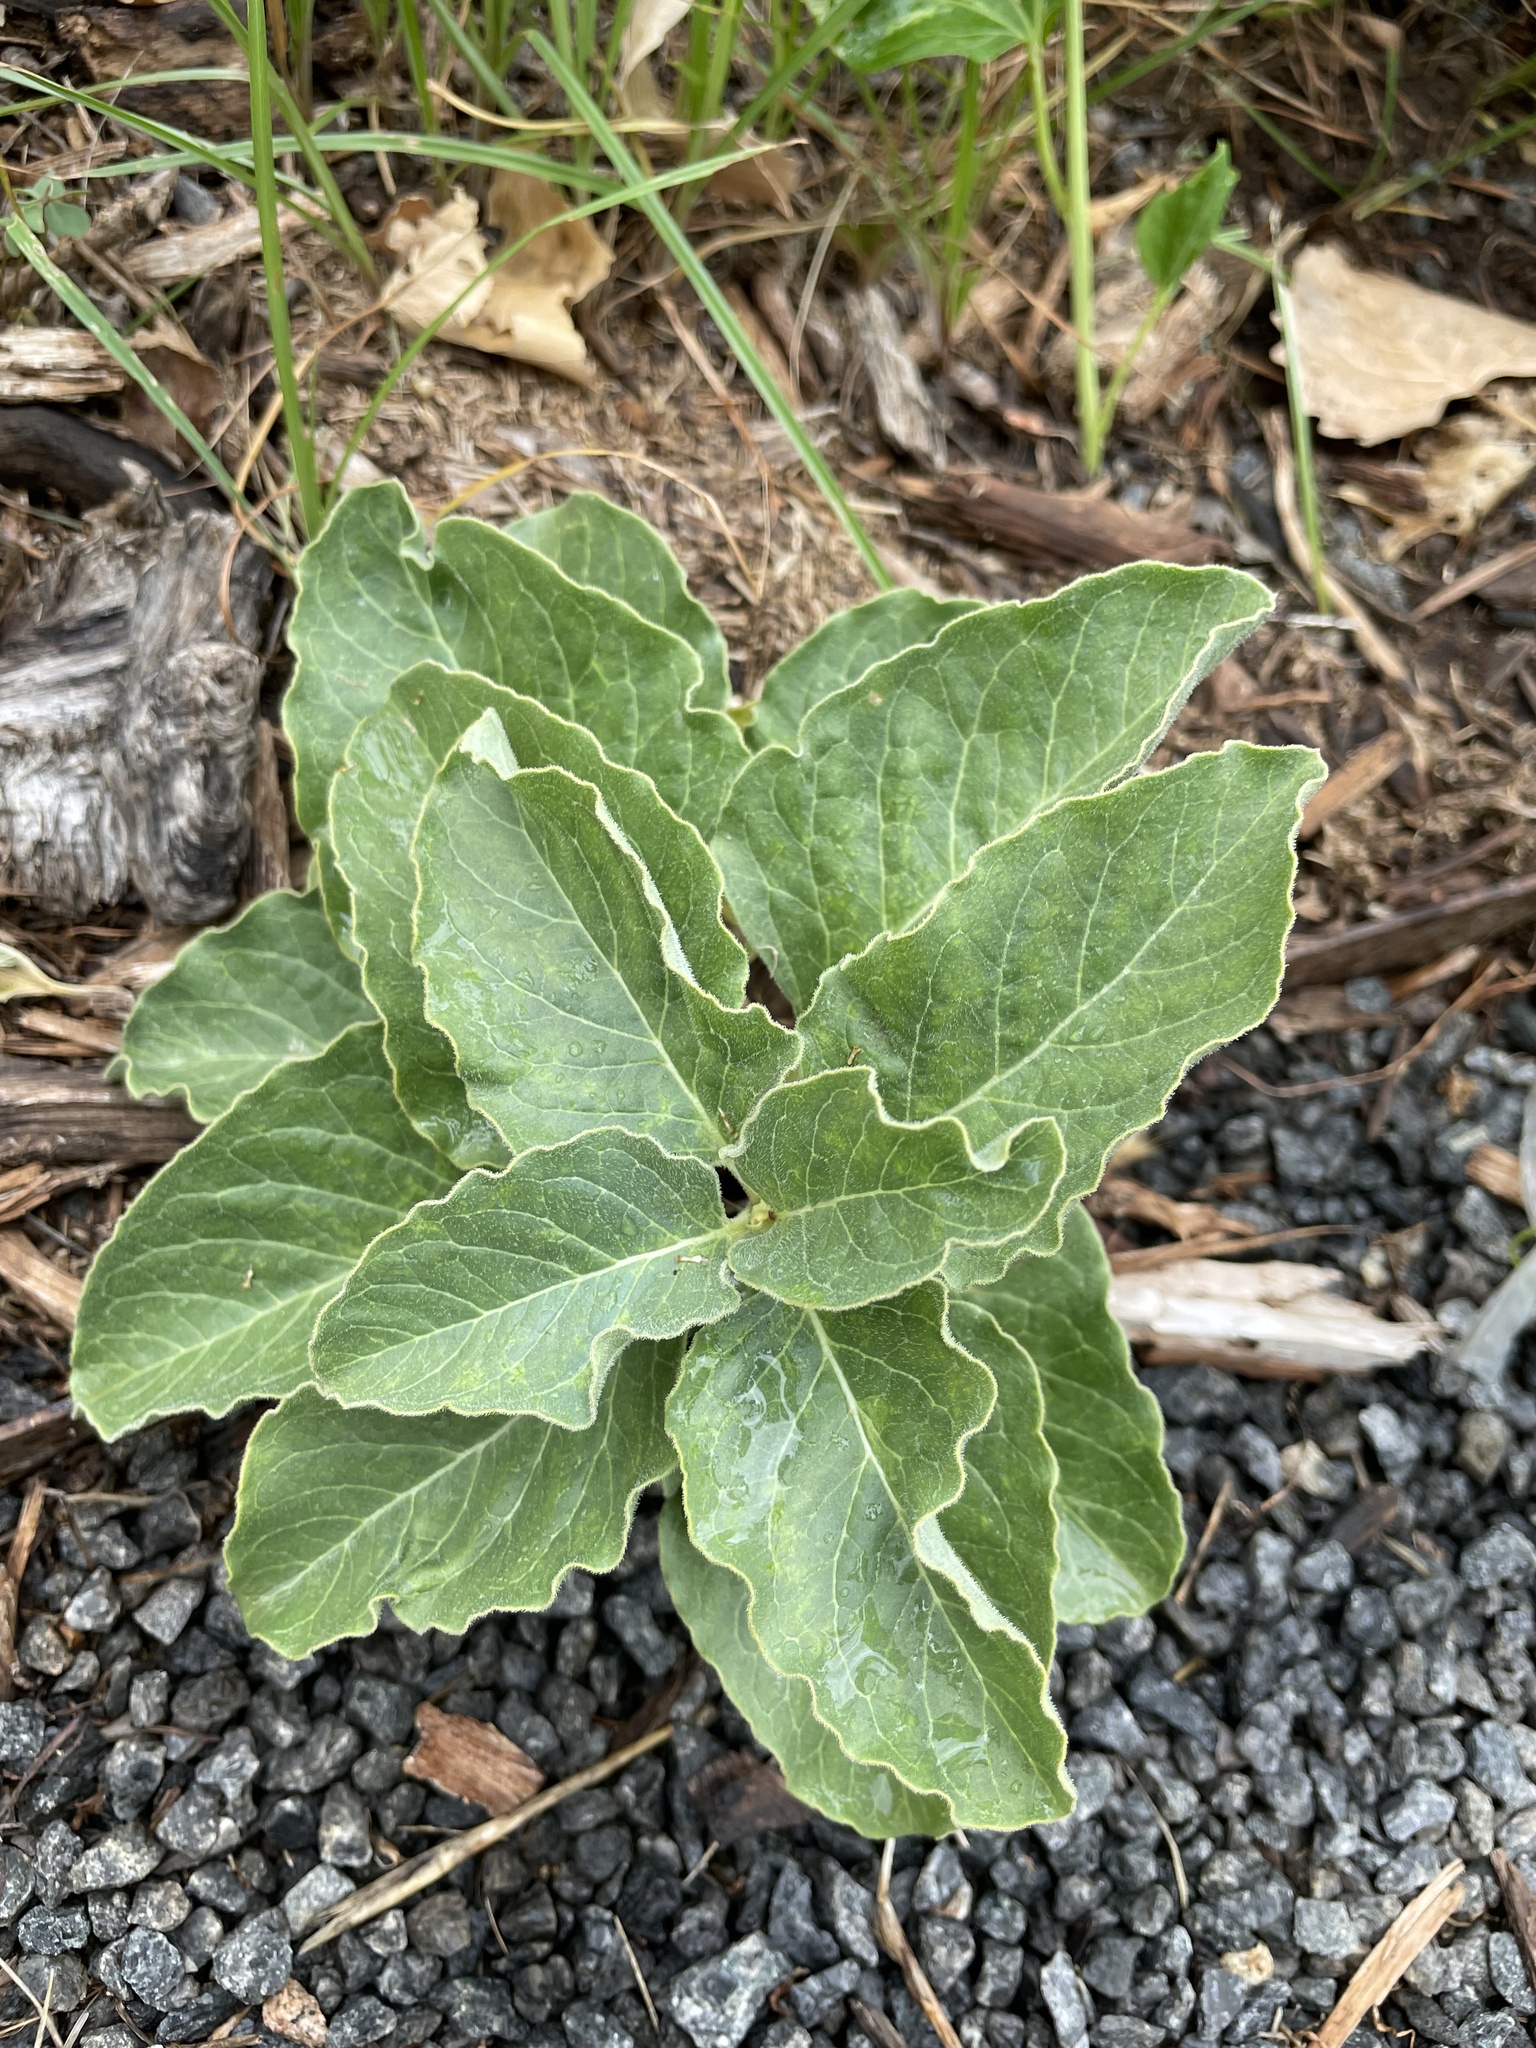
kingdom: Plantae
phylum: Tracheophyta
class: Magnoliopsida
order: Gentianales
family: Apocynaceae
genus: Asclepias
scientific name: Asclepias oenotheroides
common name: Zizotes milkweed
